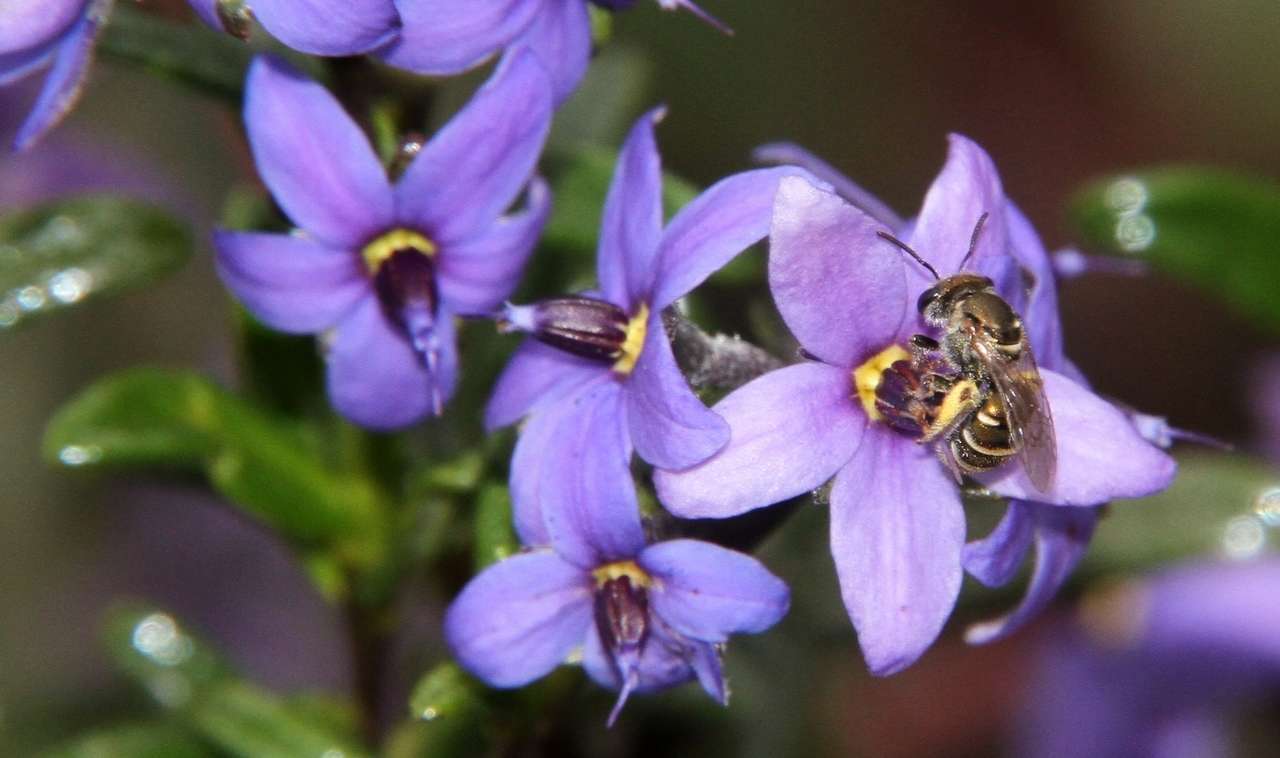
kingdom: Plantae
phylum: Tracheophyta
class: Magnoliopsida
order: Boraginales
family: Ehretiaceae
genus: Halgania
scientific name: Halgania andromedifolia
